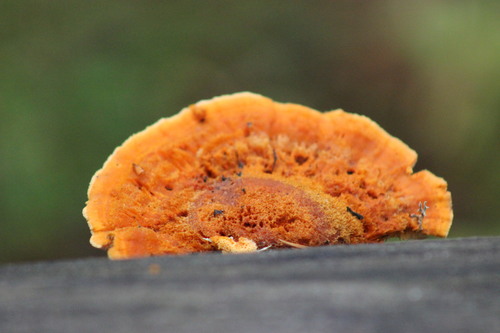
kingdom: Fungi
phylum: Basidiomycota
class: Agaricomycetes
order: Polyporales
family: Pycnoporellaceae
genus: Pycnoporellus
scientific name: Pycnoporellus fulgens
